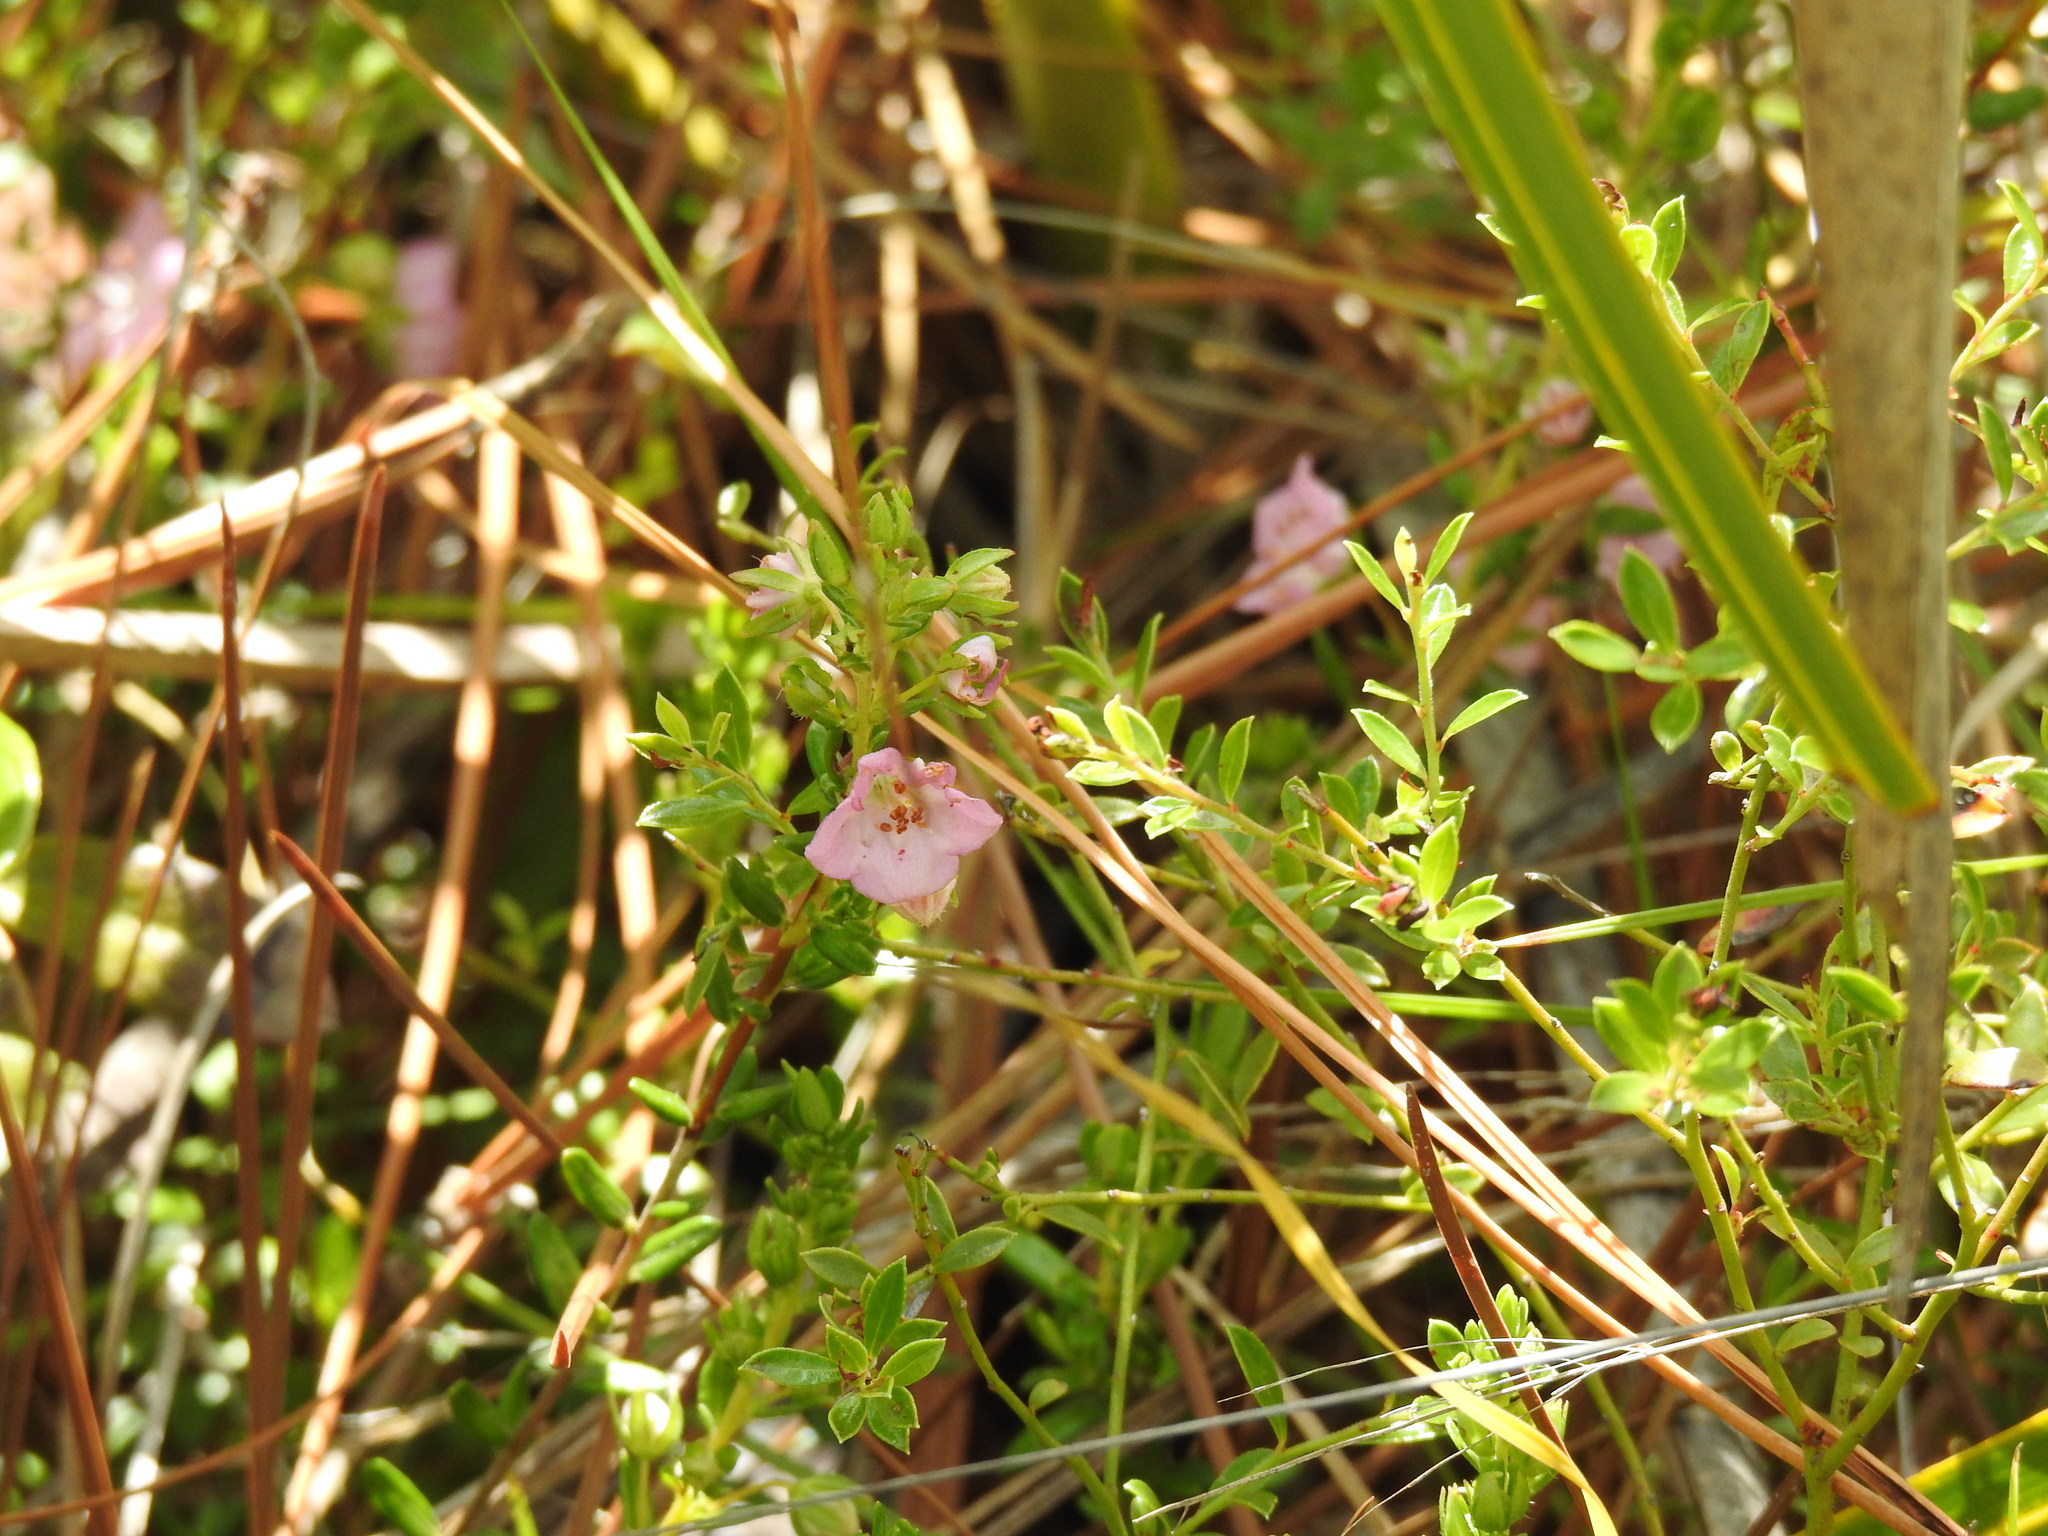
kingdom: Plantae
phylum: Tracheophyta
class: Magnoliopsida
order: Ericales
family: Ericaceae
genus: Kalmia
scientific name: Kalmia hirsuta
